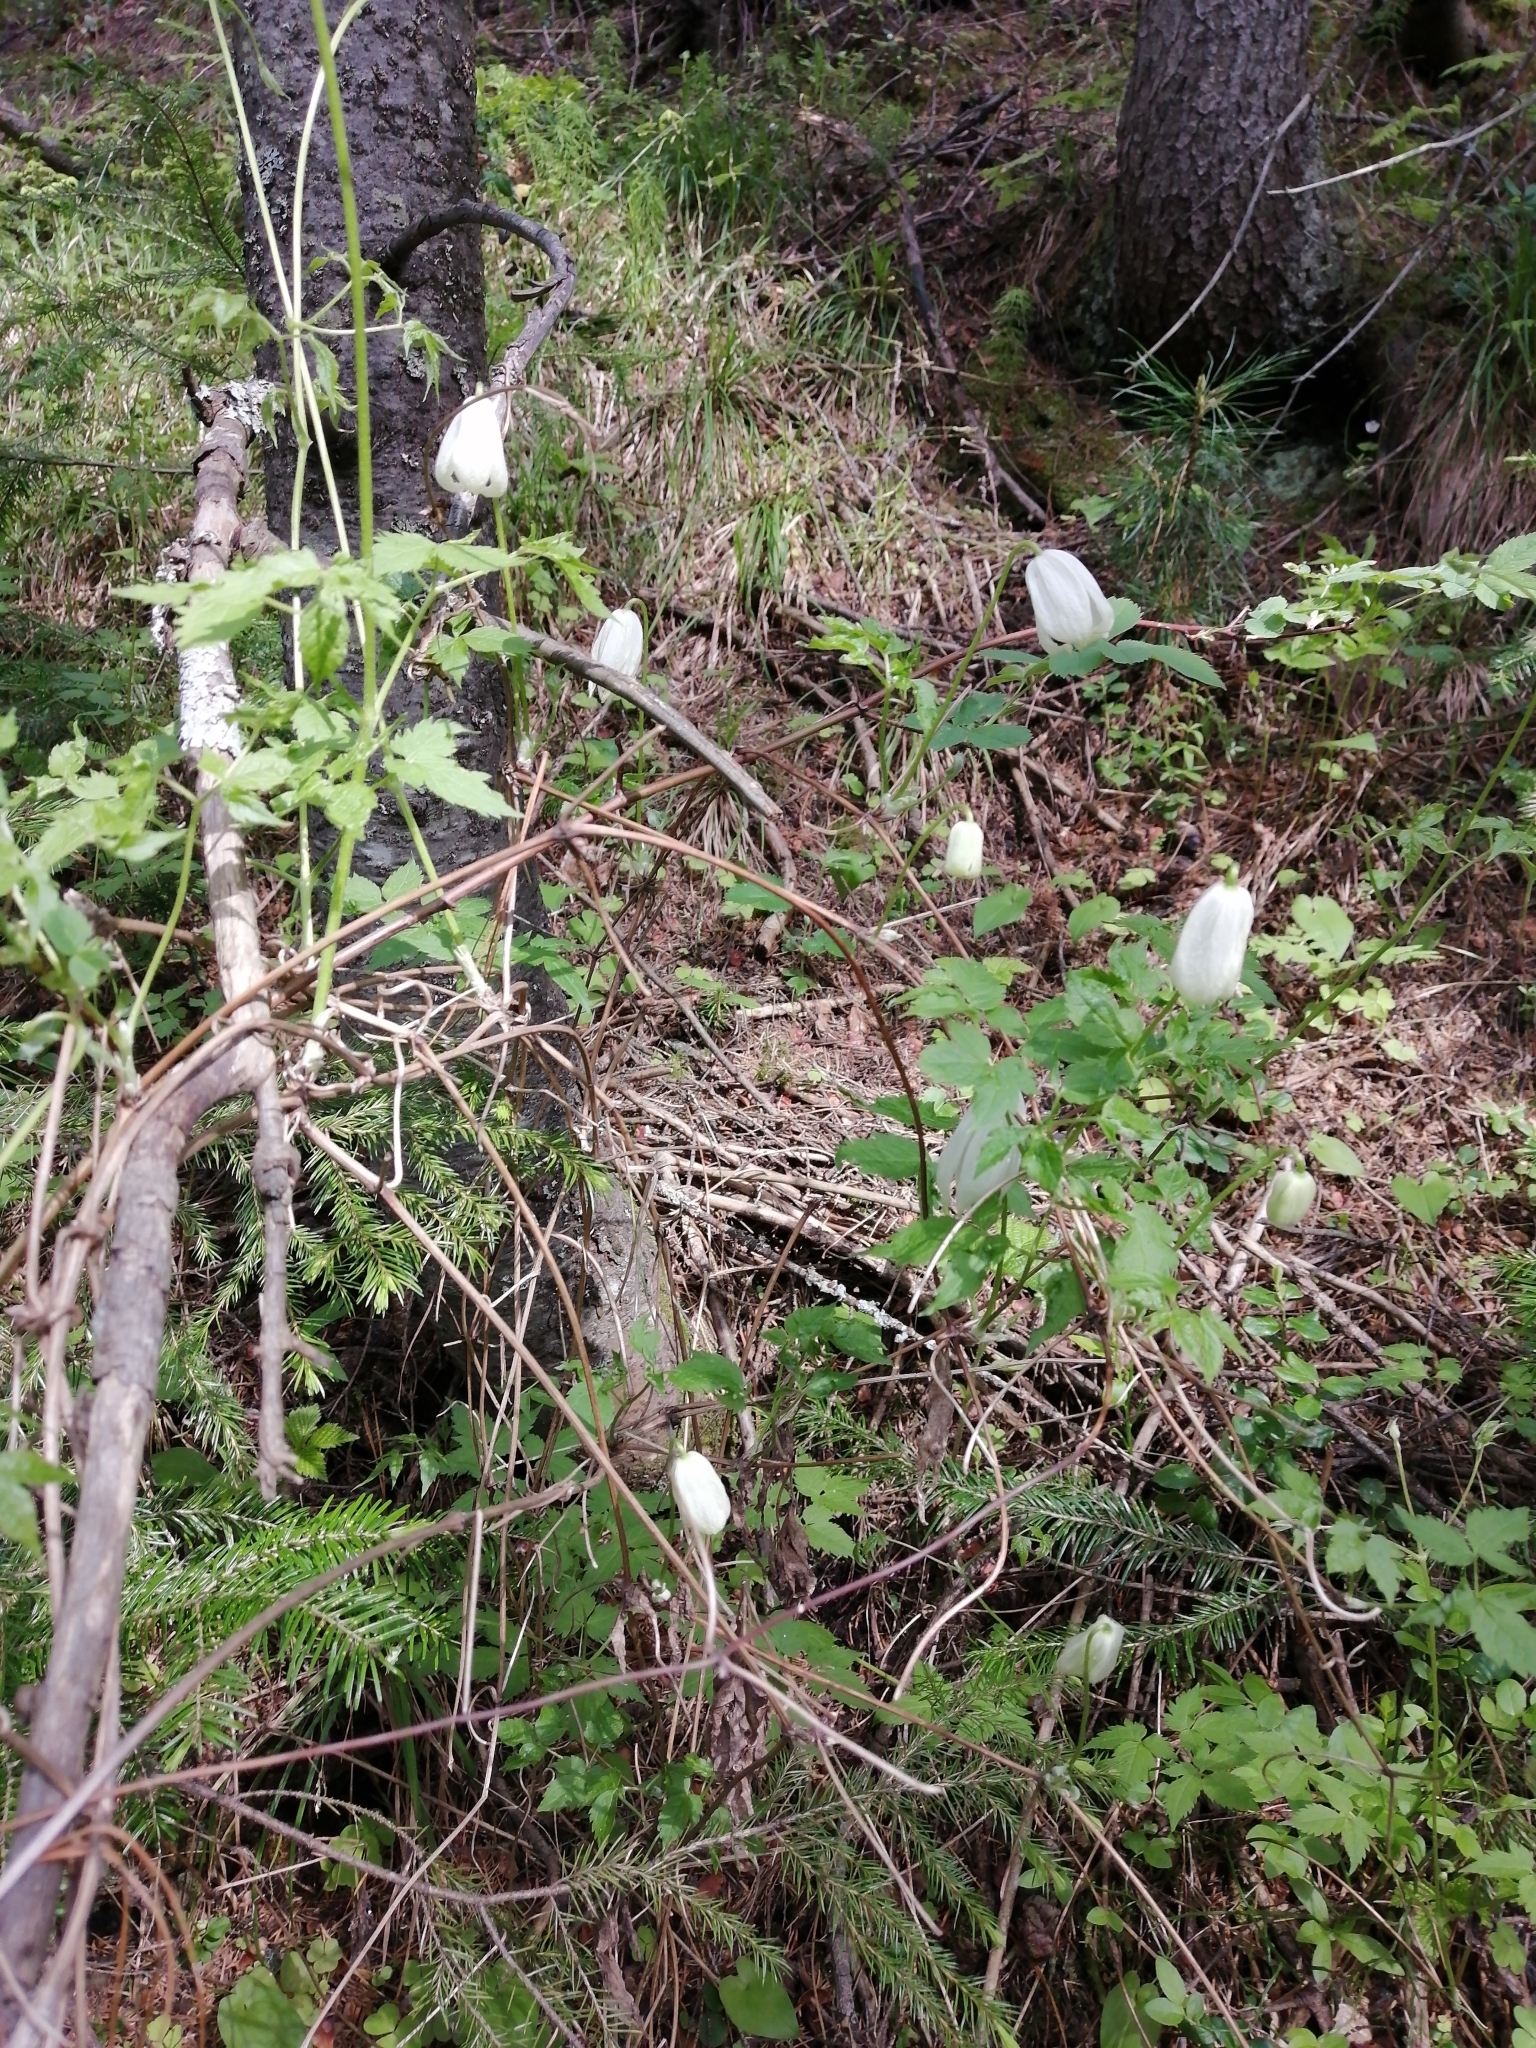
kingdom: Plantae
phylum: Tracheophyta
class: Magnoliopsida
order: Ranunculales
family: Ranunculaceae
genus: Clematis
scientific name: Clematis sibirica
